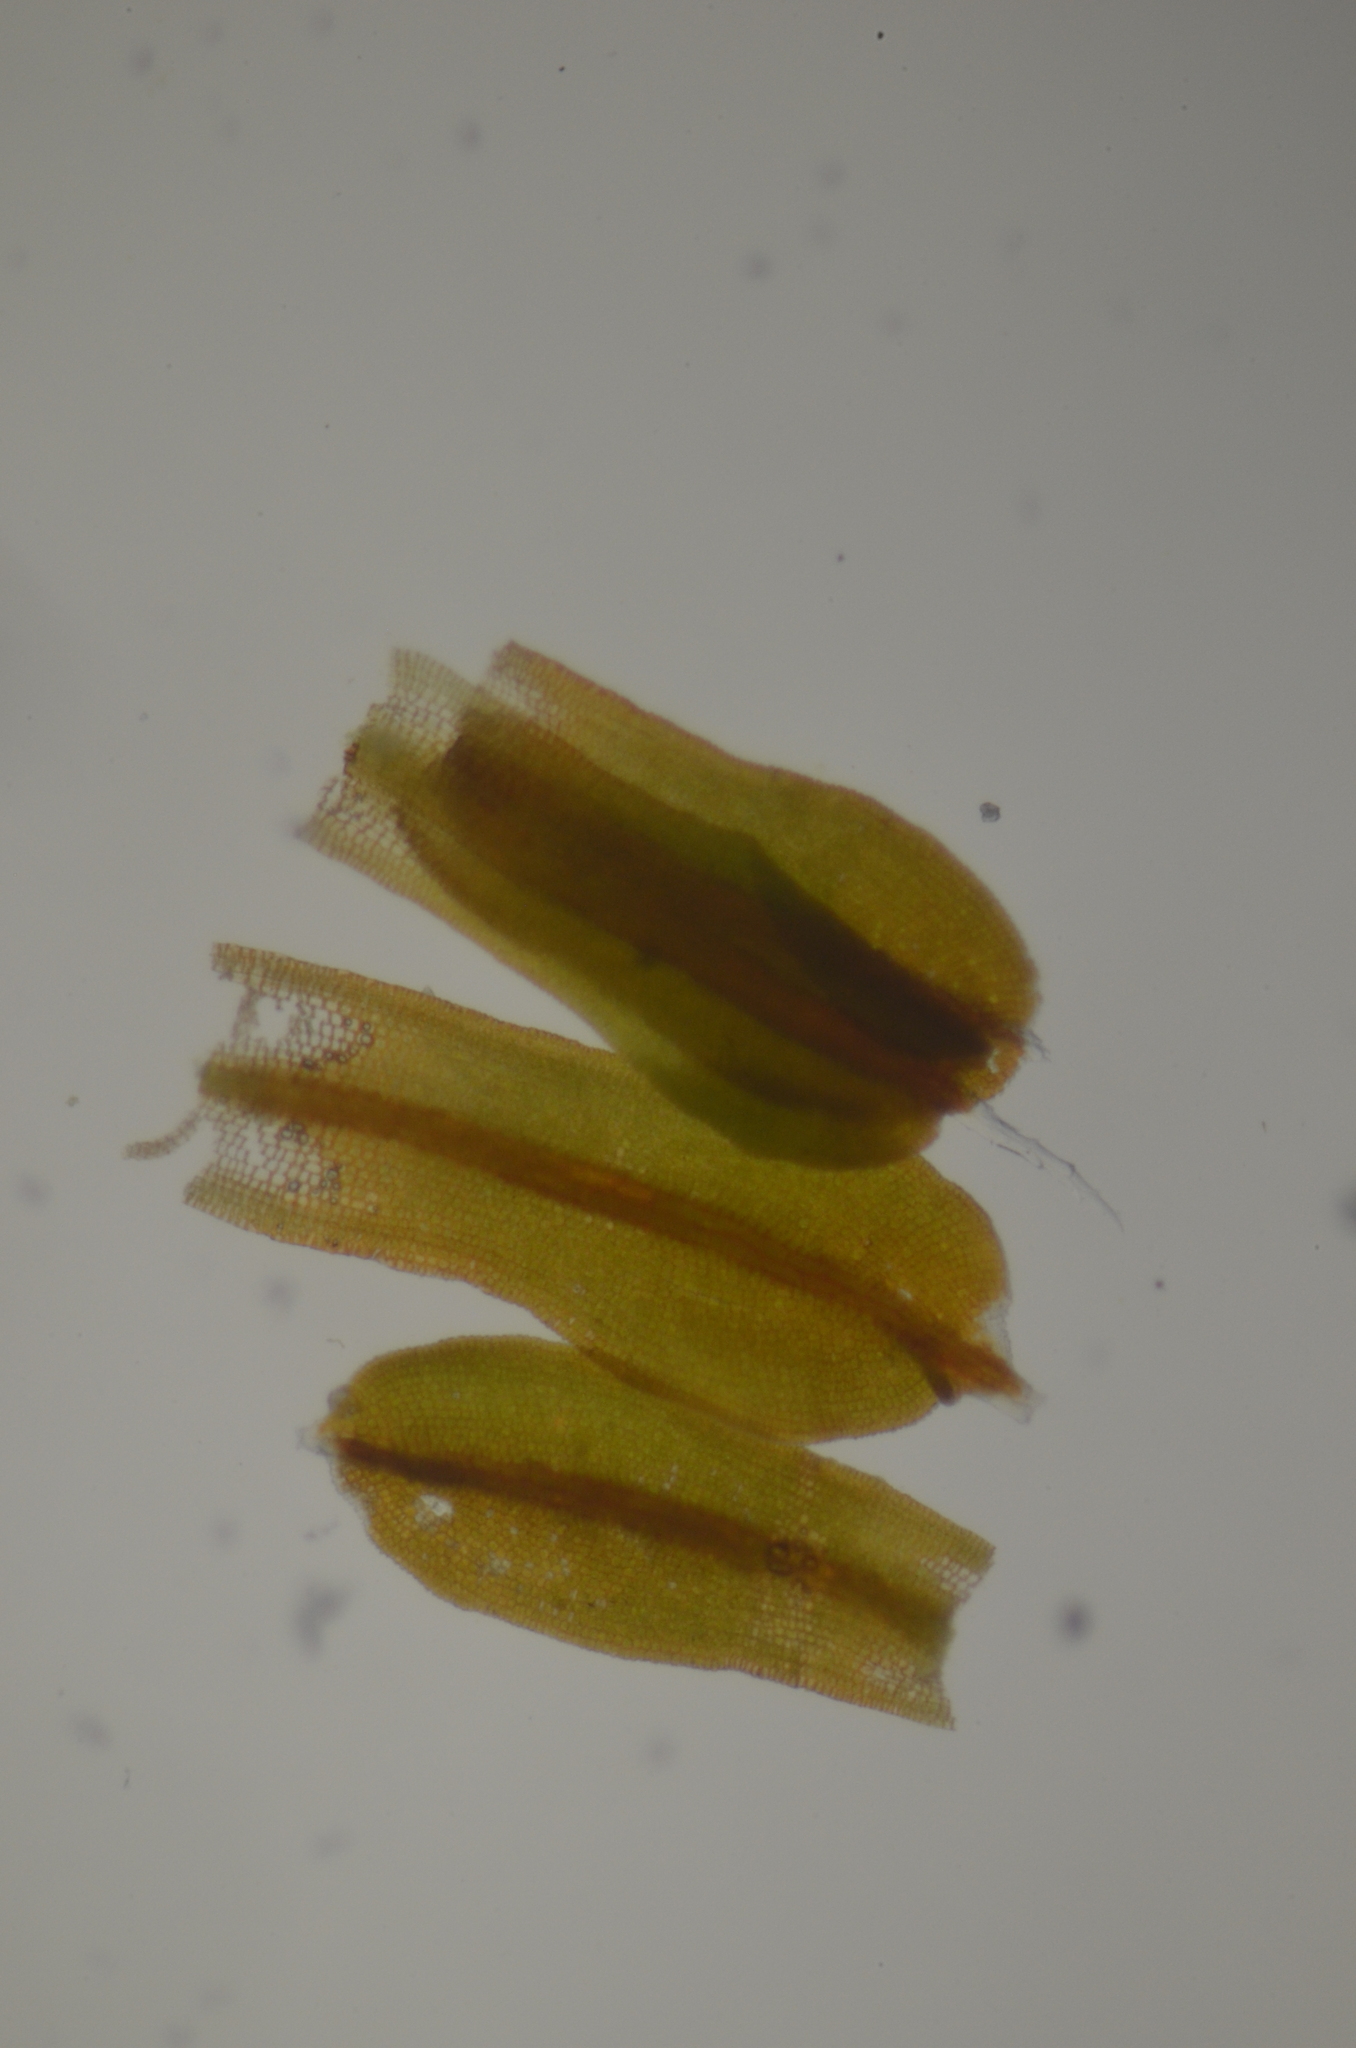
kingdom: Plantae
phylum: Bryophyta
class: Bryopsida
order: Pottiales
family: Pottiaceae
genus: Syntrichia
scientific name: Syntrichia laevipila
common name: Small hairy screw-moss
